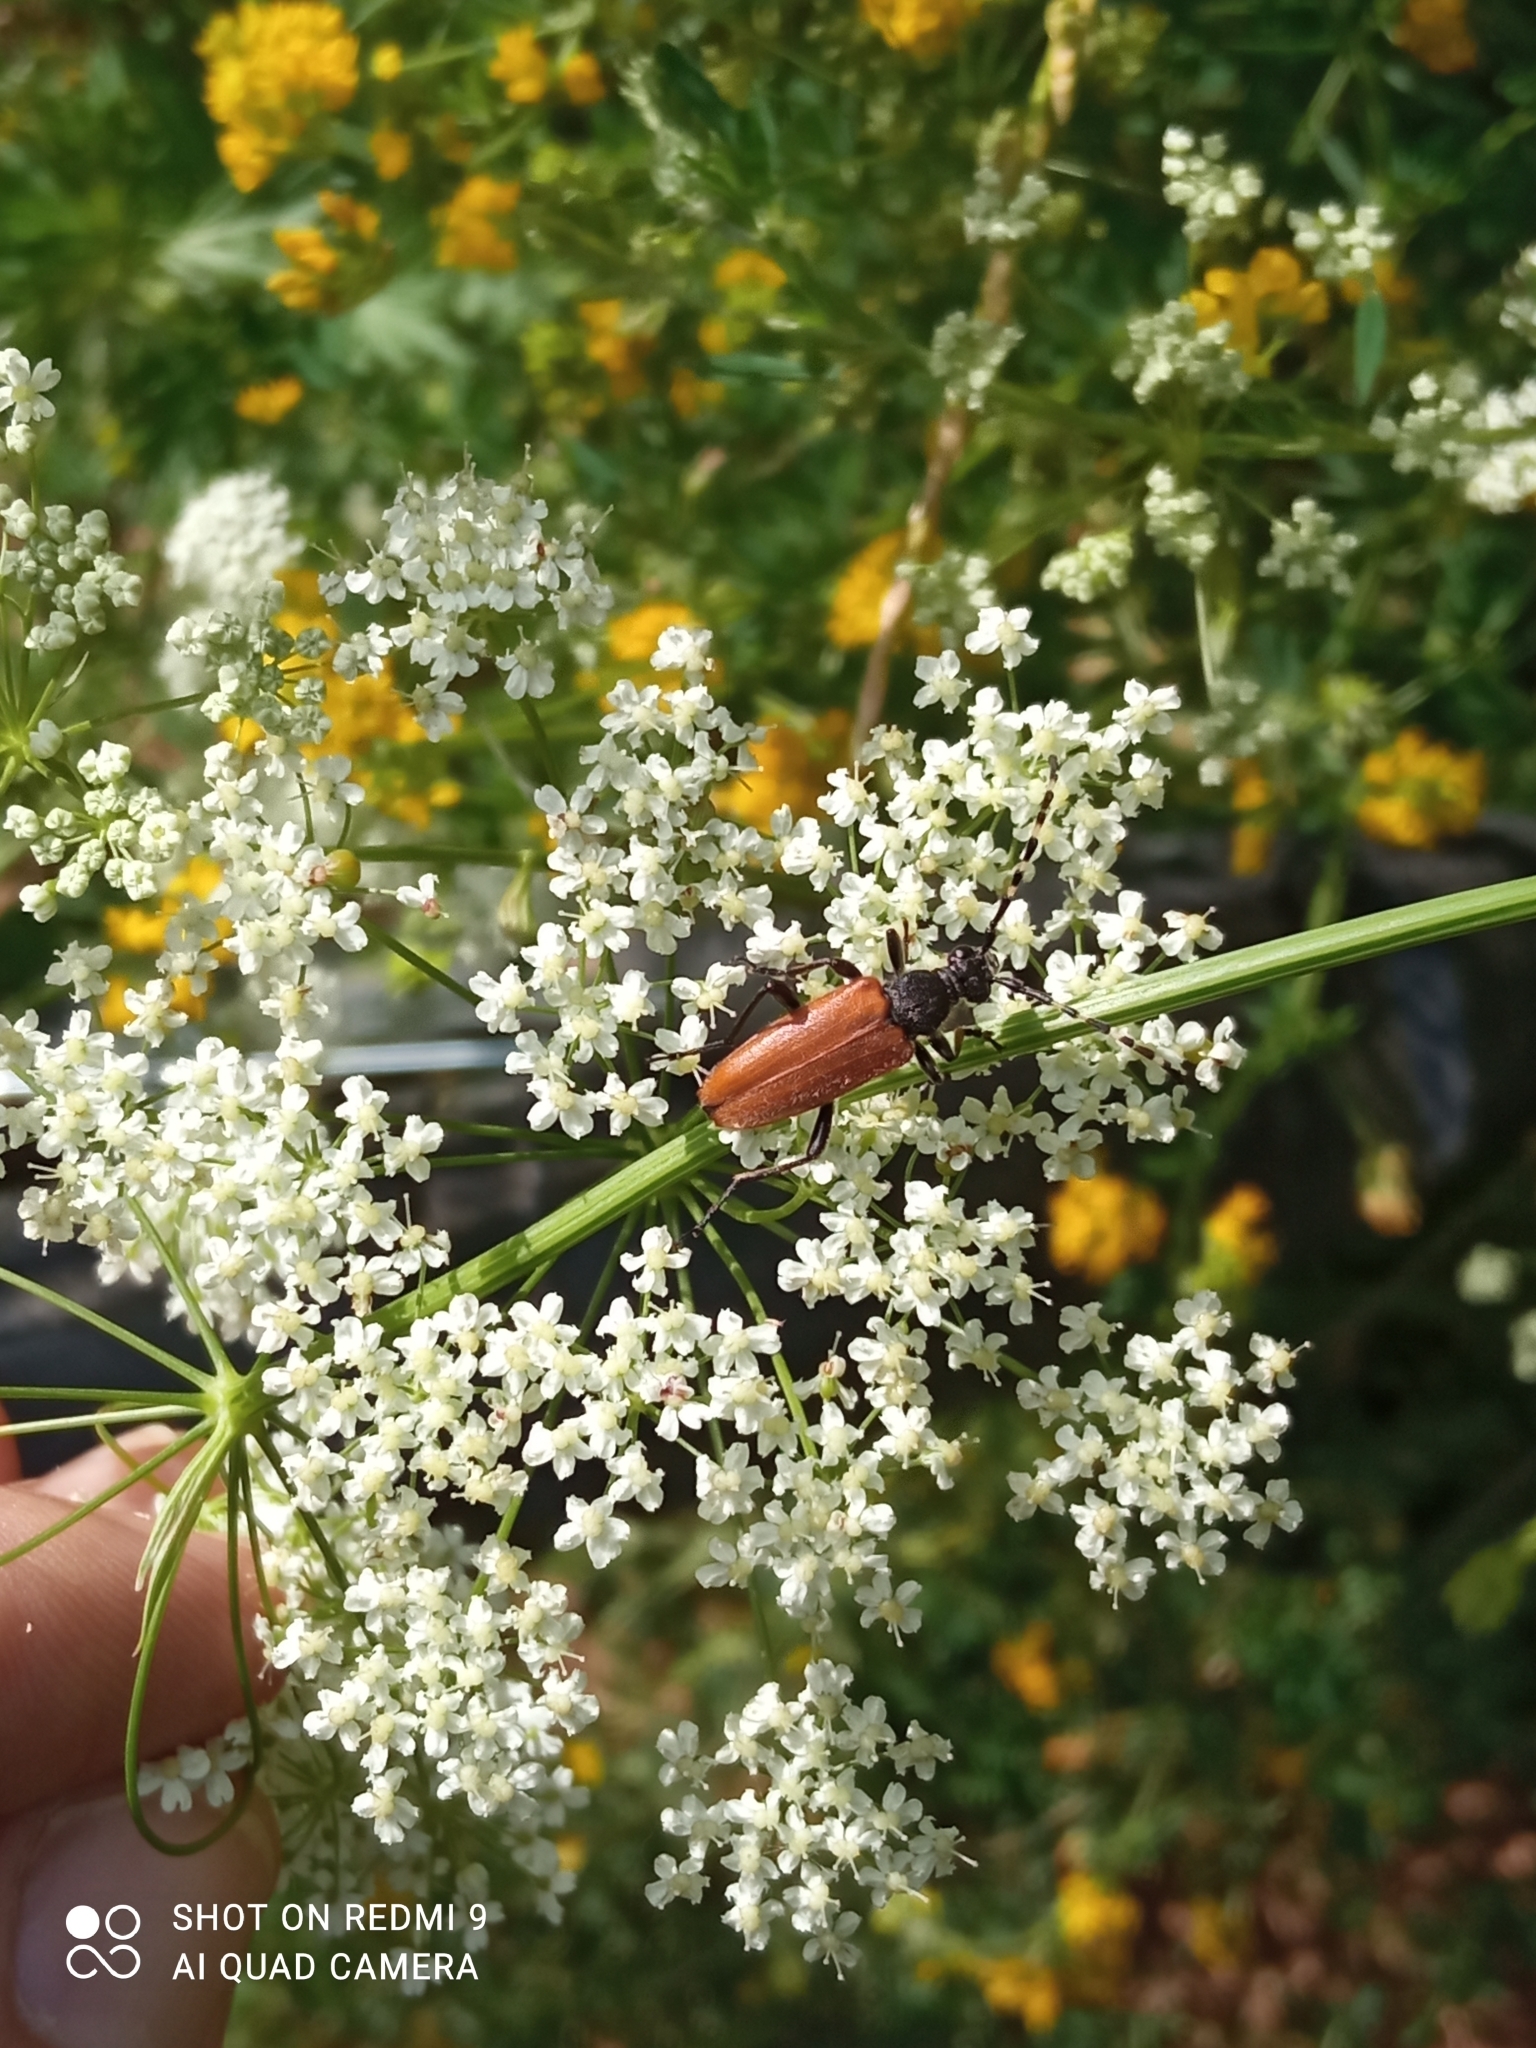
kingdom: Animalia
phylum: Arthropoda
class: Insecta
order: Coleoptera
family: Cerambycidae
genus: Stictoleptura
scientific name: Stictoleptura variicornis
